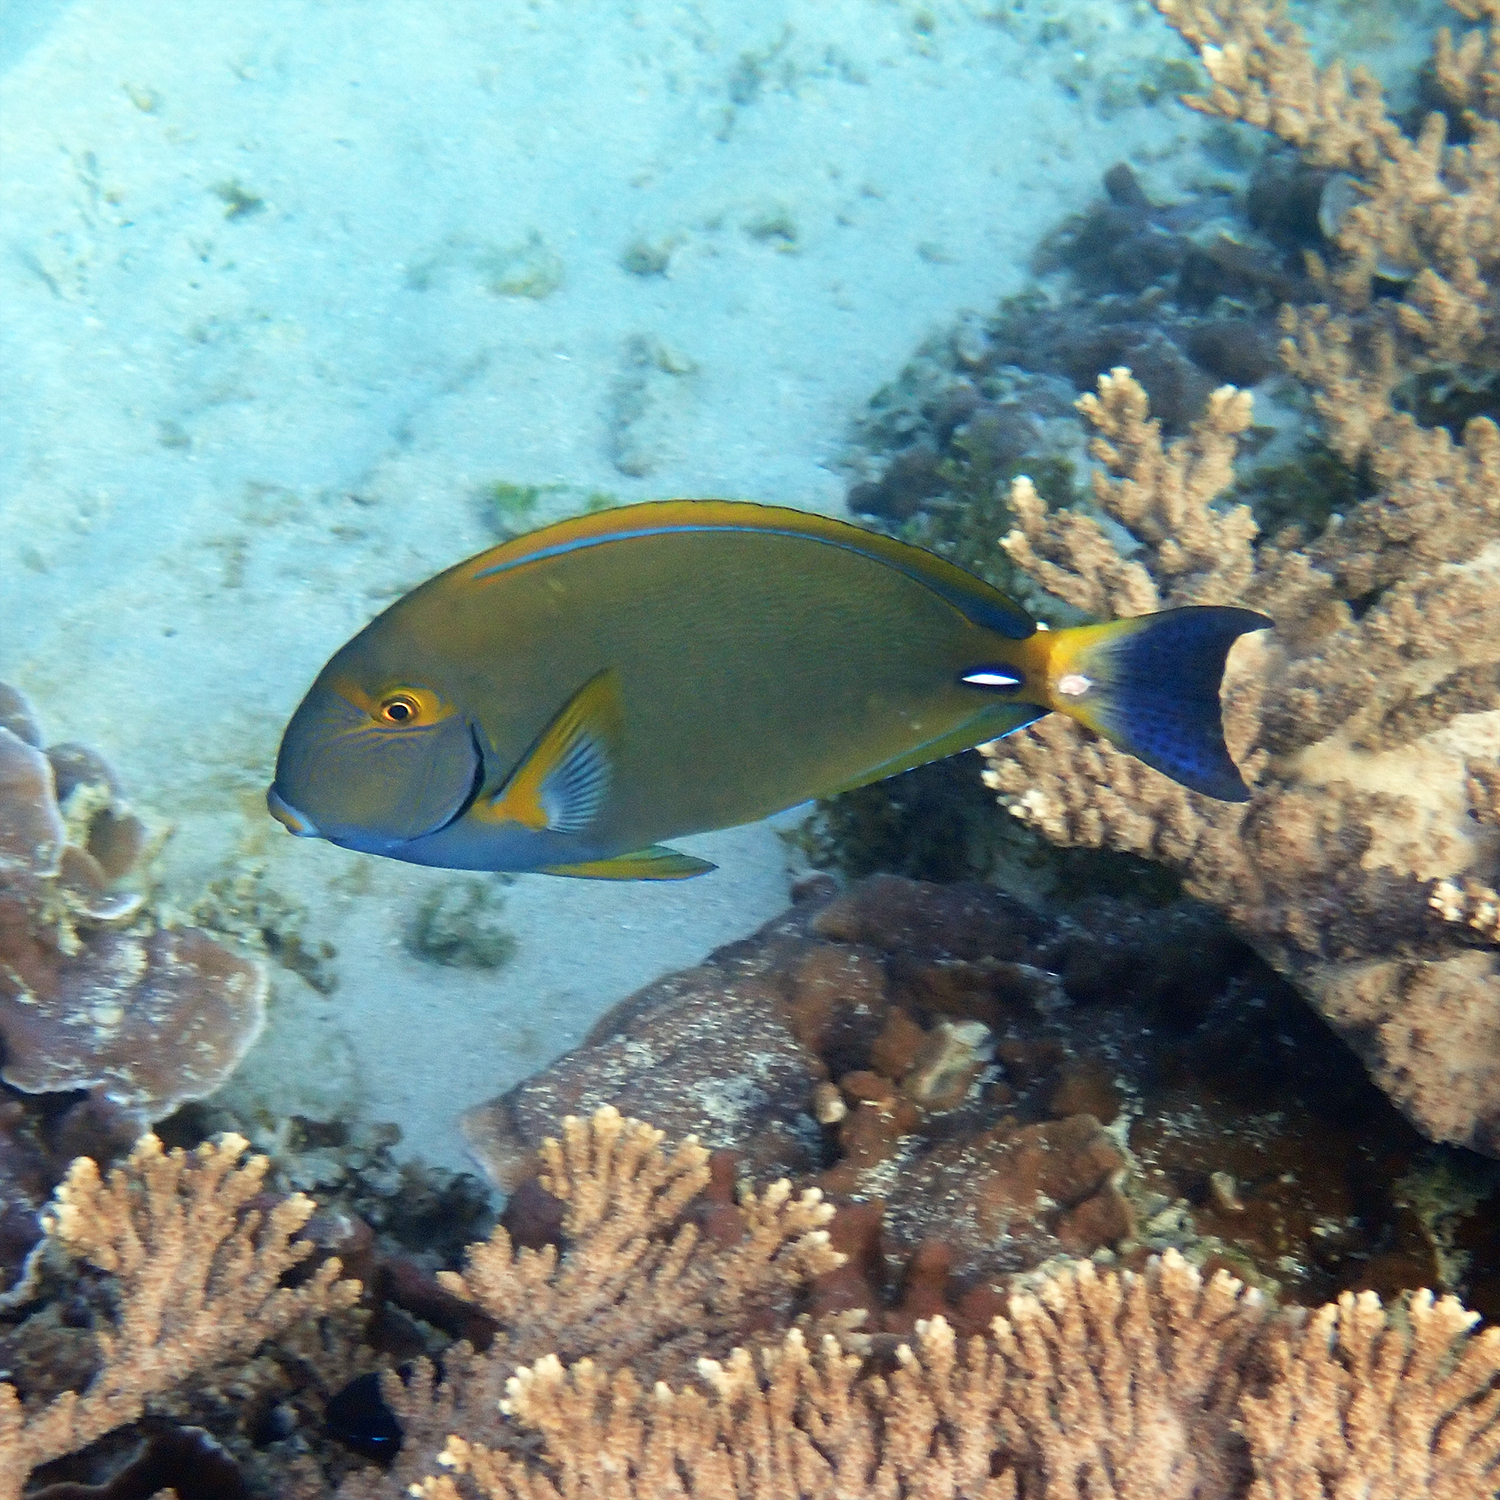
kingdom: Animalia
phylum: Chordata
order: Perciformes
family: Acanthuridae
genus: Acanthurus
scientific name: Acanthurus dussumieri
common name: Dussumier's surgeonfish
